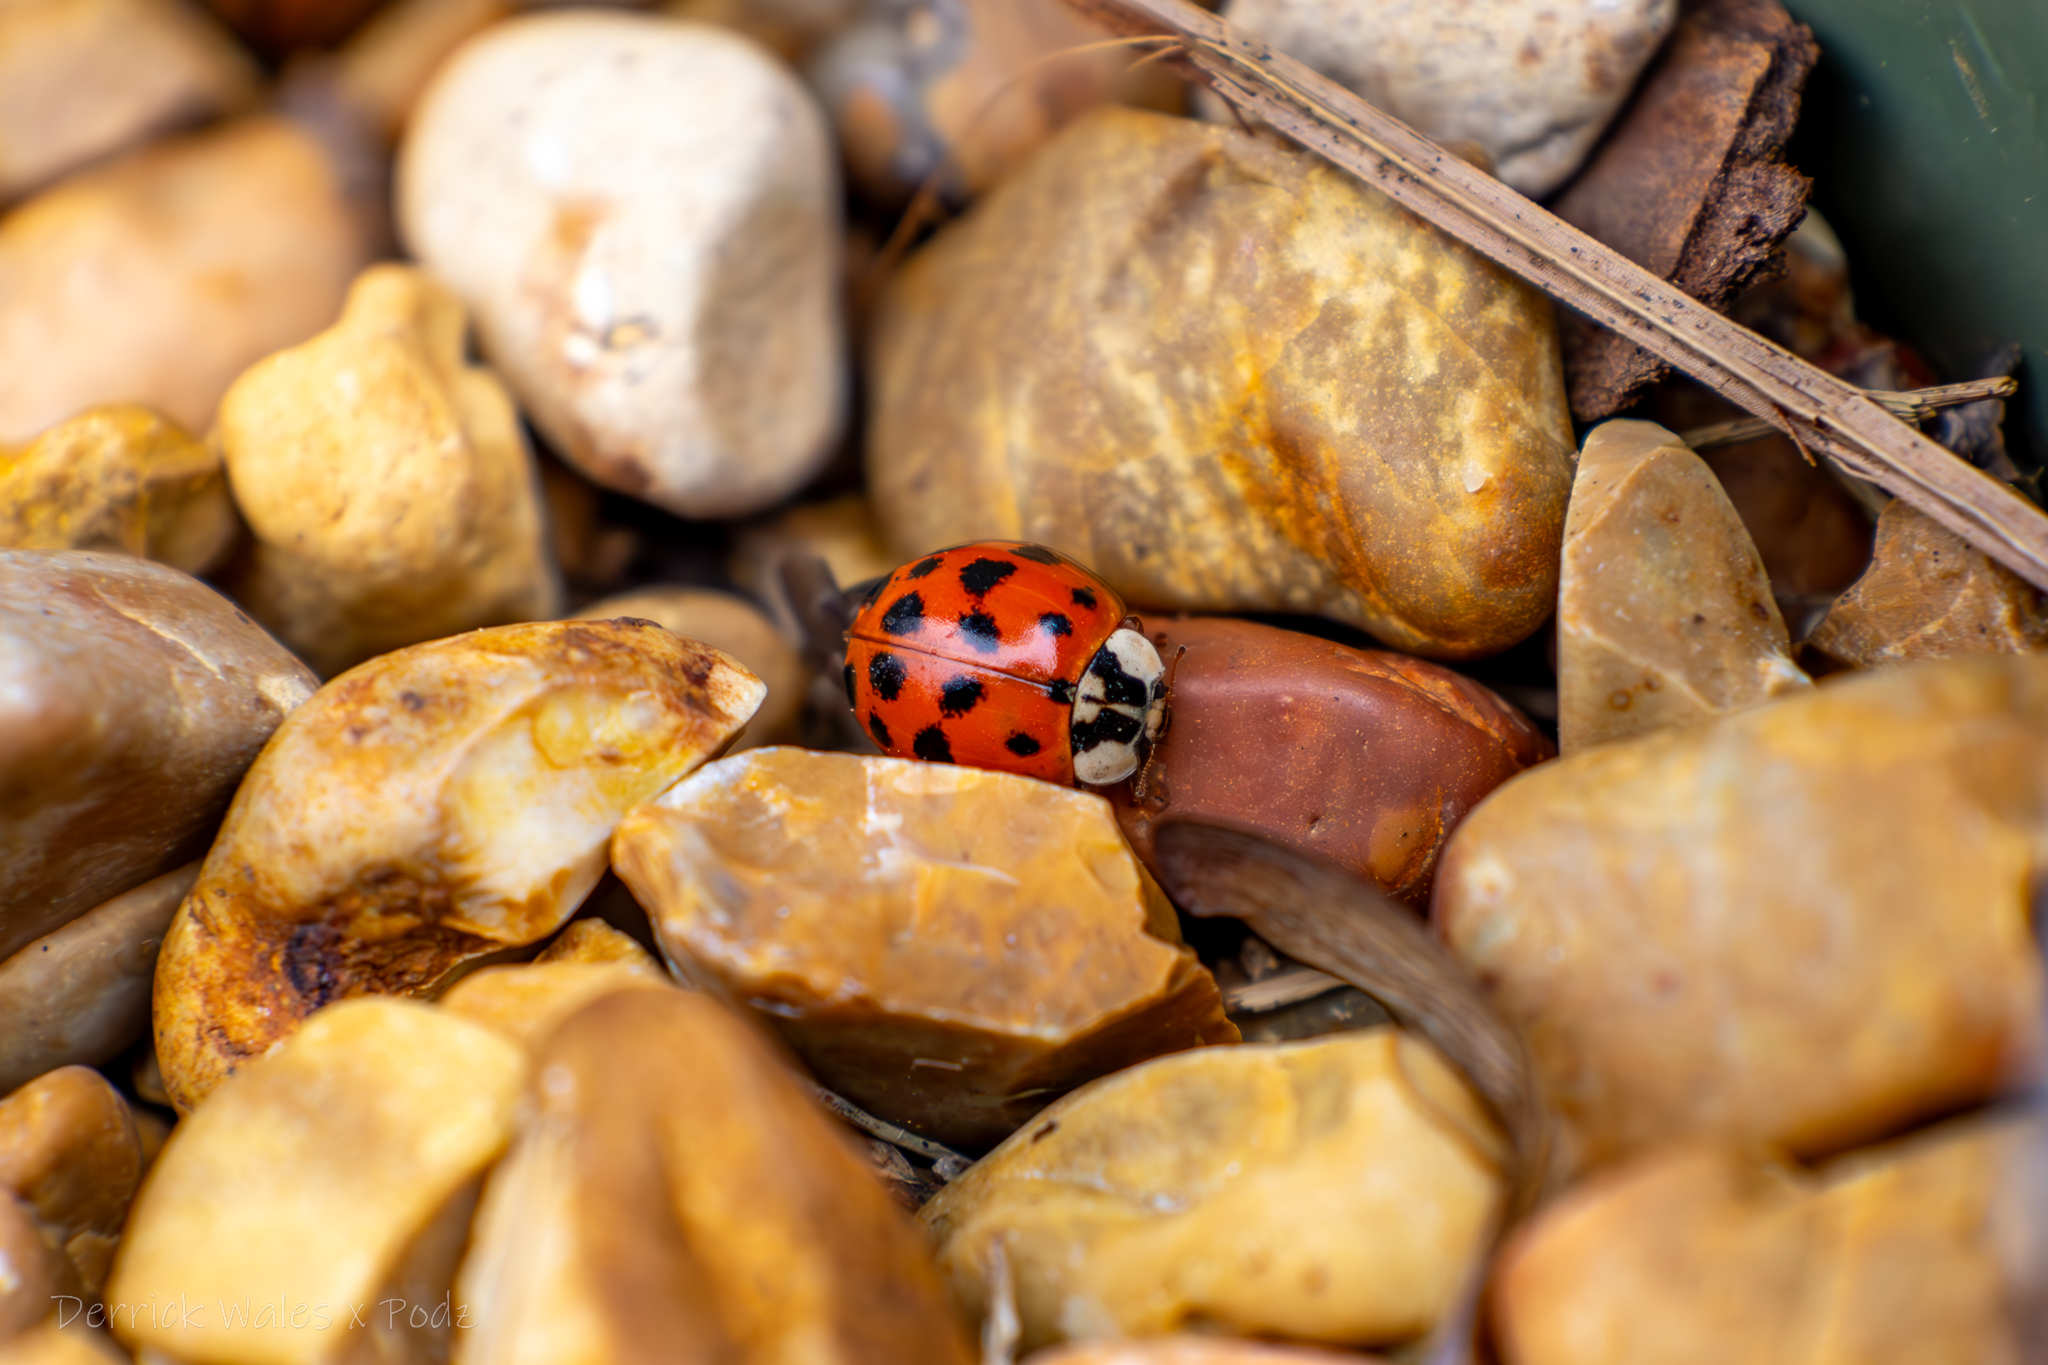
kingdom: Animalia
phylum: Arthropoda
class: Insecta
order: Coleoptera
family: Coccinellidae
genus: Harmonia
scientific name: Harmonia axyridis
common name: Harlequin ladybird
